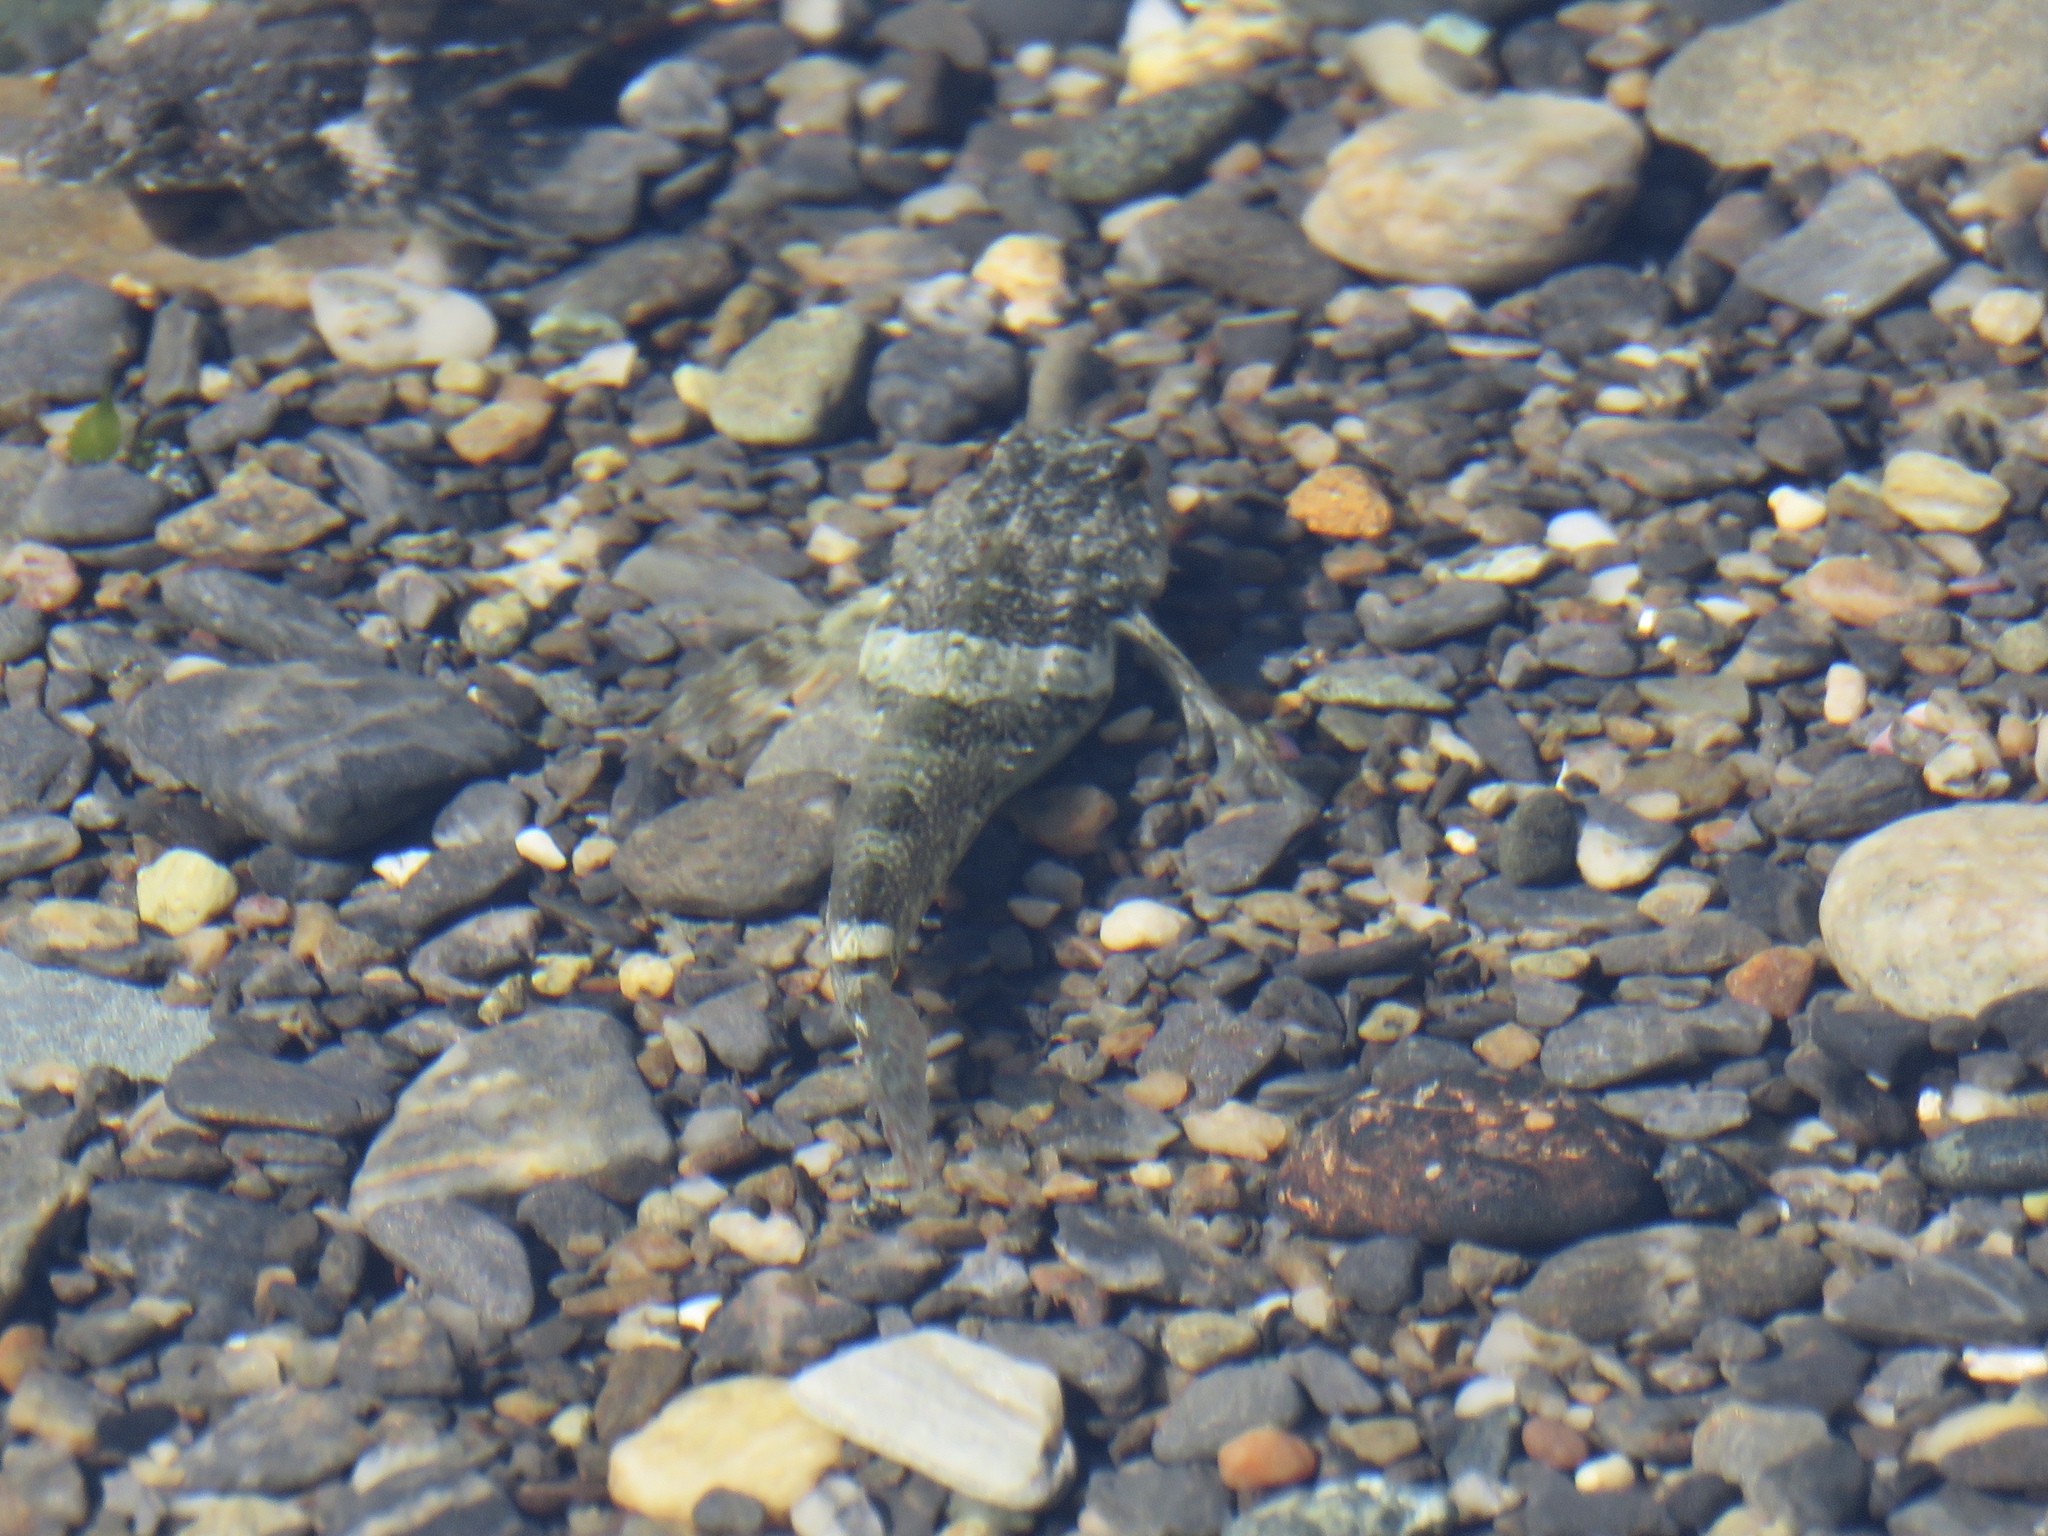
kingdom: Animalia
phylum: Chordata
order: Scorpaeniformes
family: Cottidae
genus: Oligocottus
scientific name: Oligocottus maculosus
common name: Tidepool sculpin
